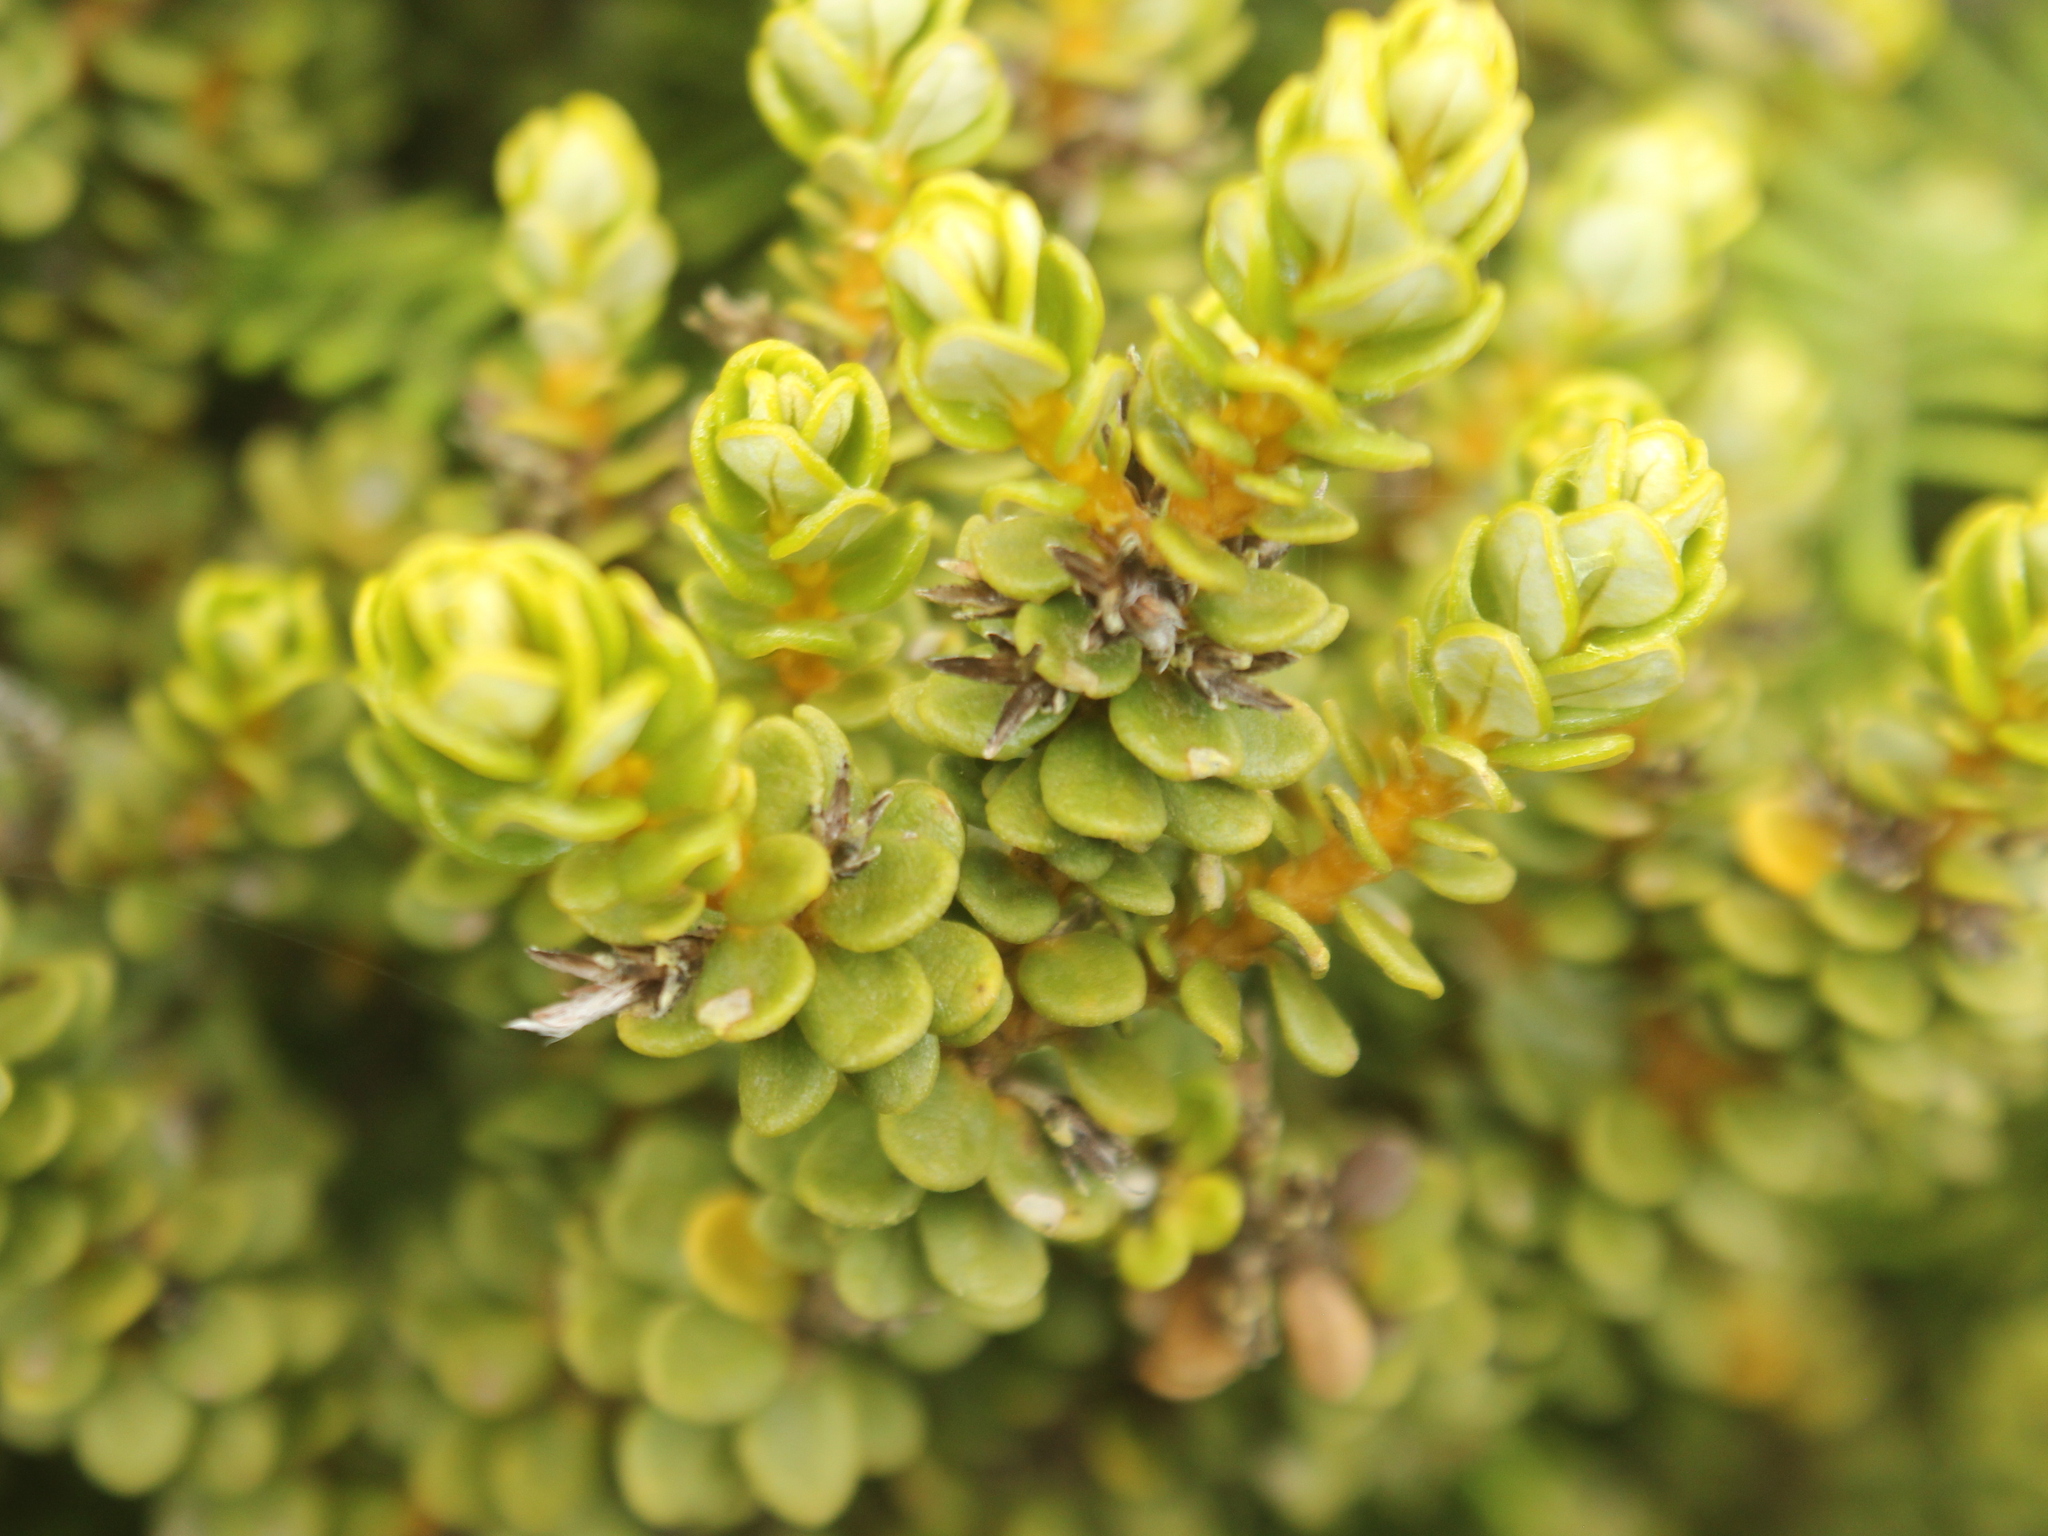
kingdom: Plantae
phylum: Tracheophyta
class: Magnoliopsida
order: Asterales
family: Asteraceae
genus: Olearia
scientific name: Olearia nummularifolia
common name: Sticky daisybush
